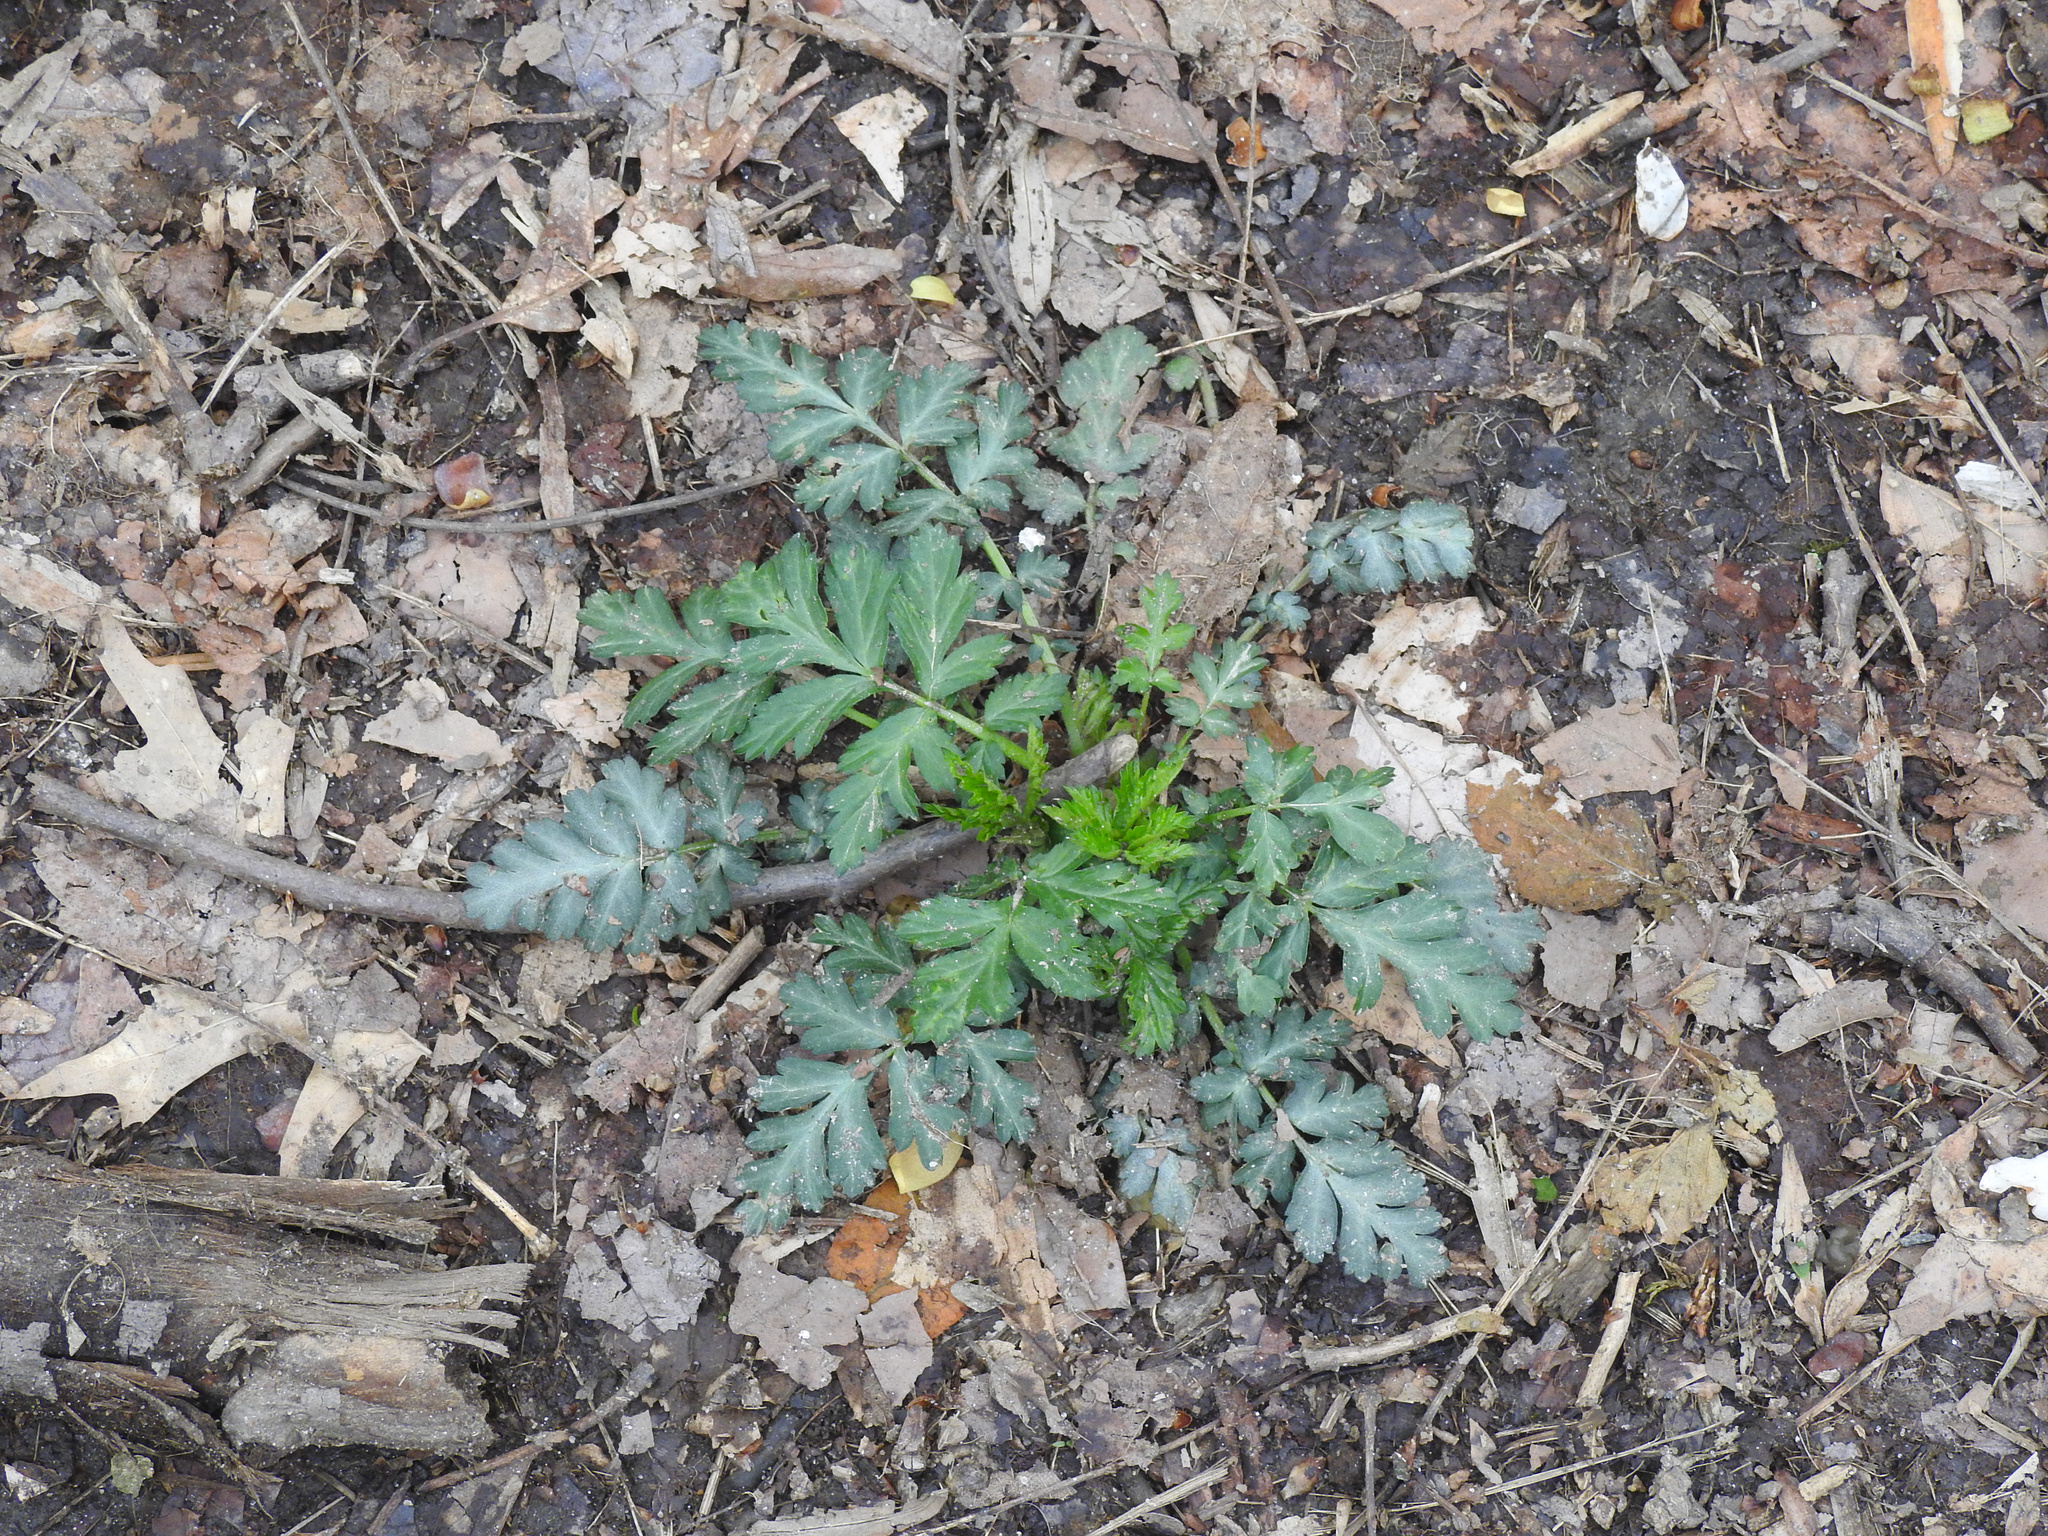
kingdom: Plantae
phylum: Tracheophyta
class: Magnoliopsida
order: Rosales
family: Rosaceae
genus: Geum
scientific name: Geum canadense
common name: White avens
